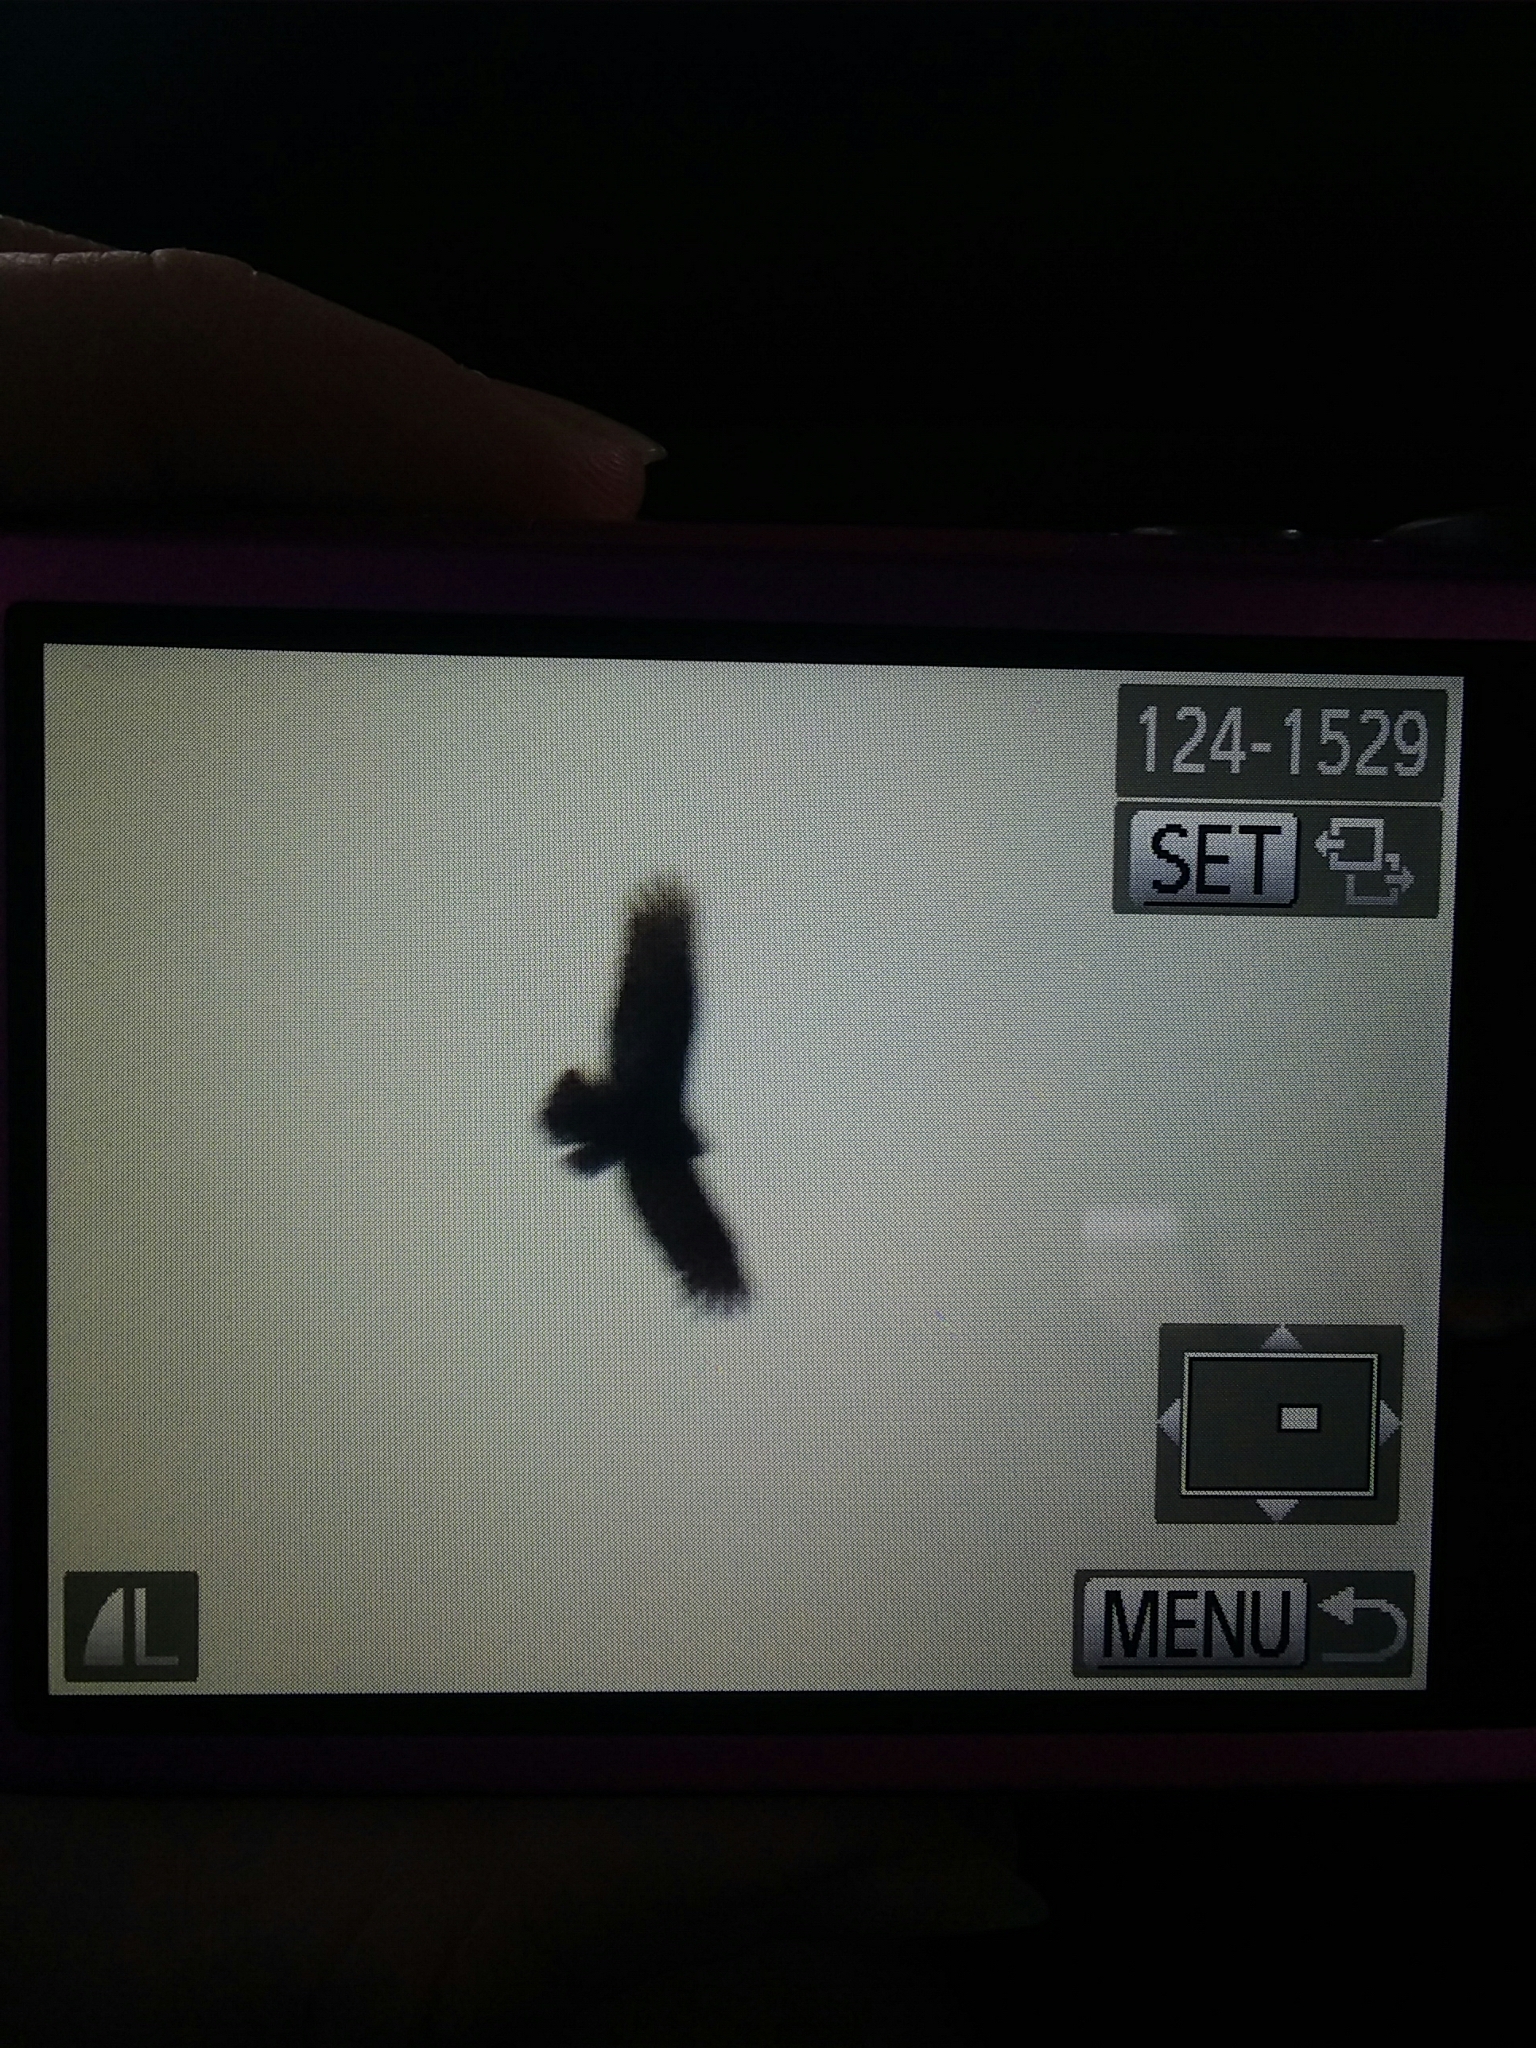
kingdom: Animalia
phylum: Chordata
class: Aves
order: Accipitriformes
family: Cathartidae
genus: Cathartes
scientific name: Cathartes aura
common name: Turkey vulture
